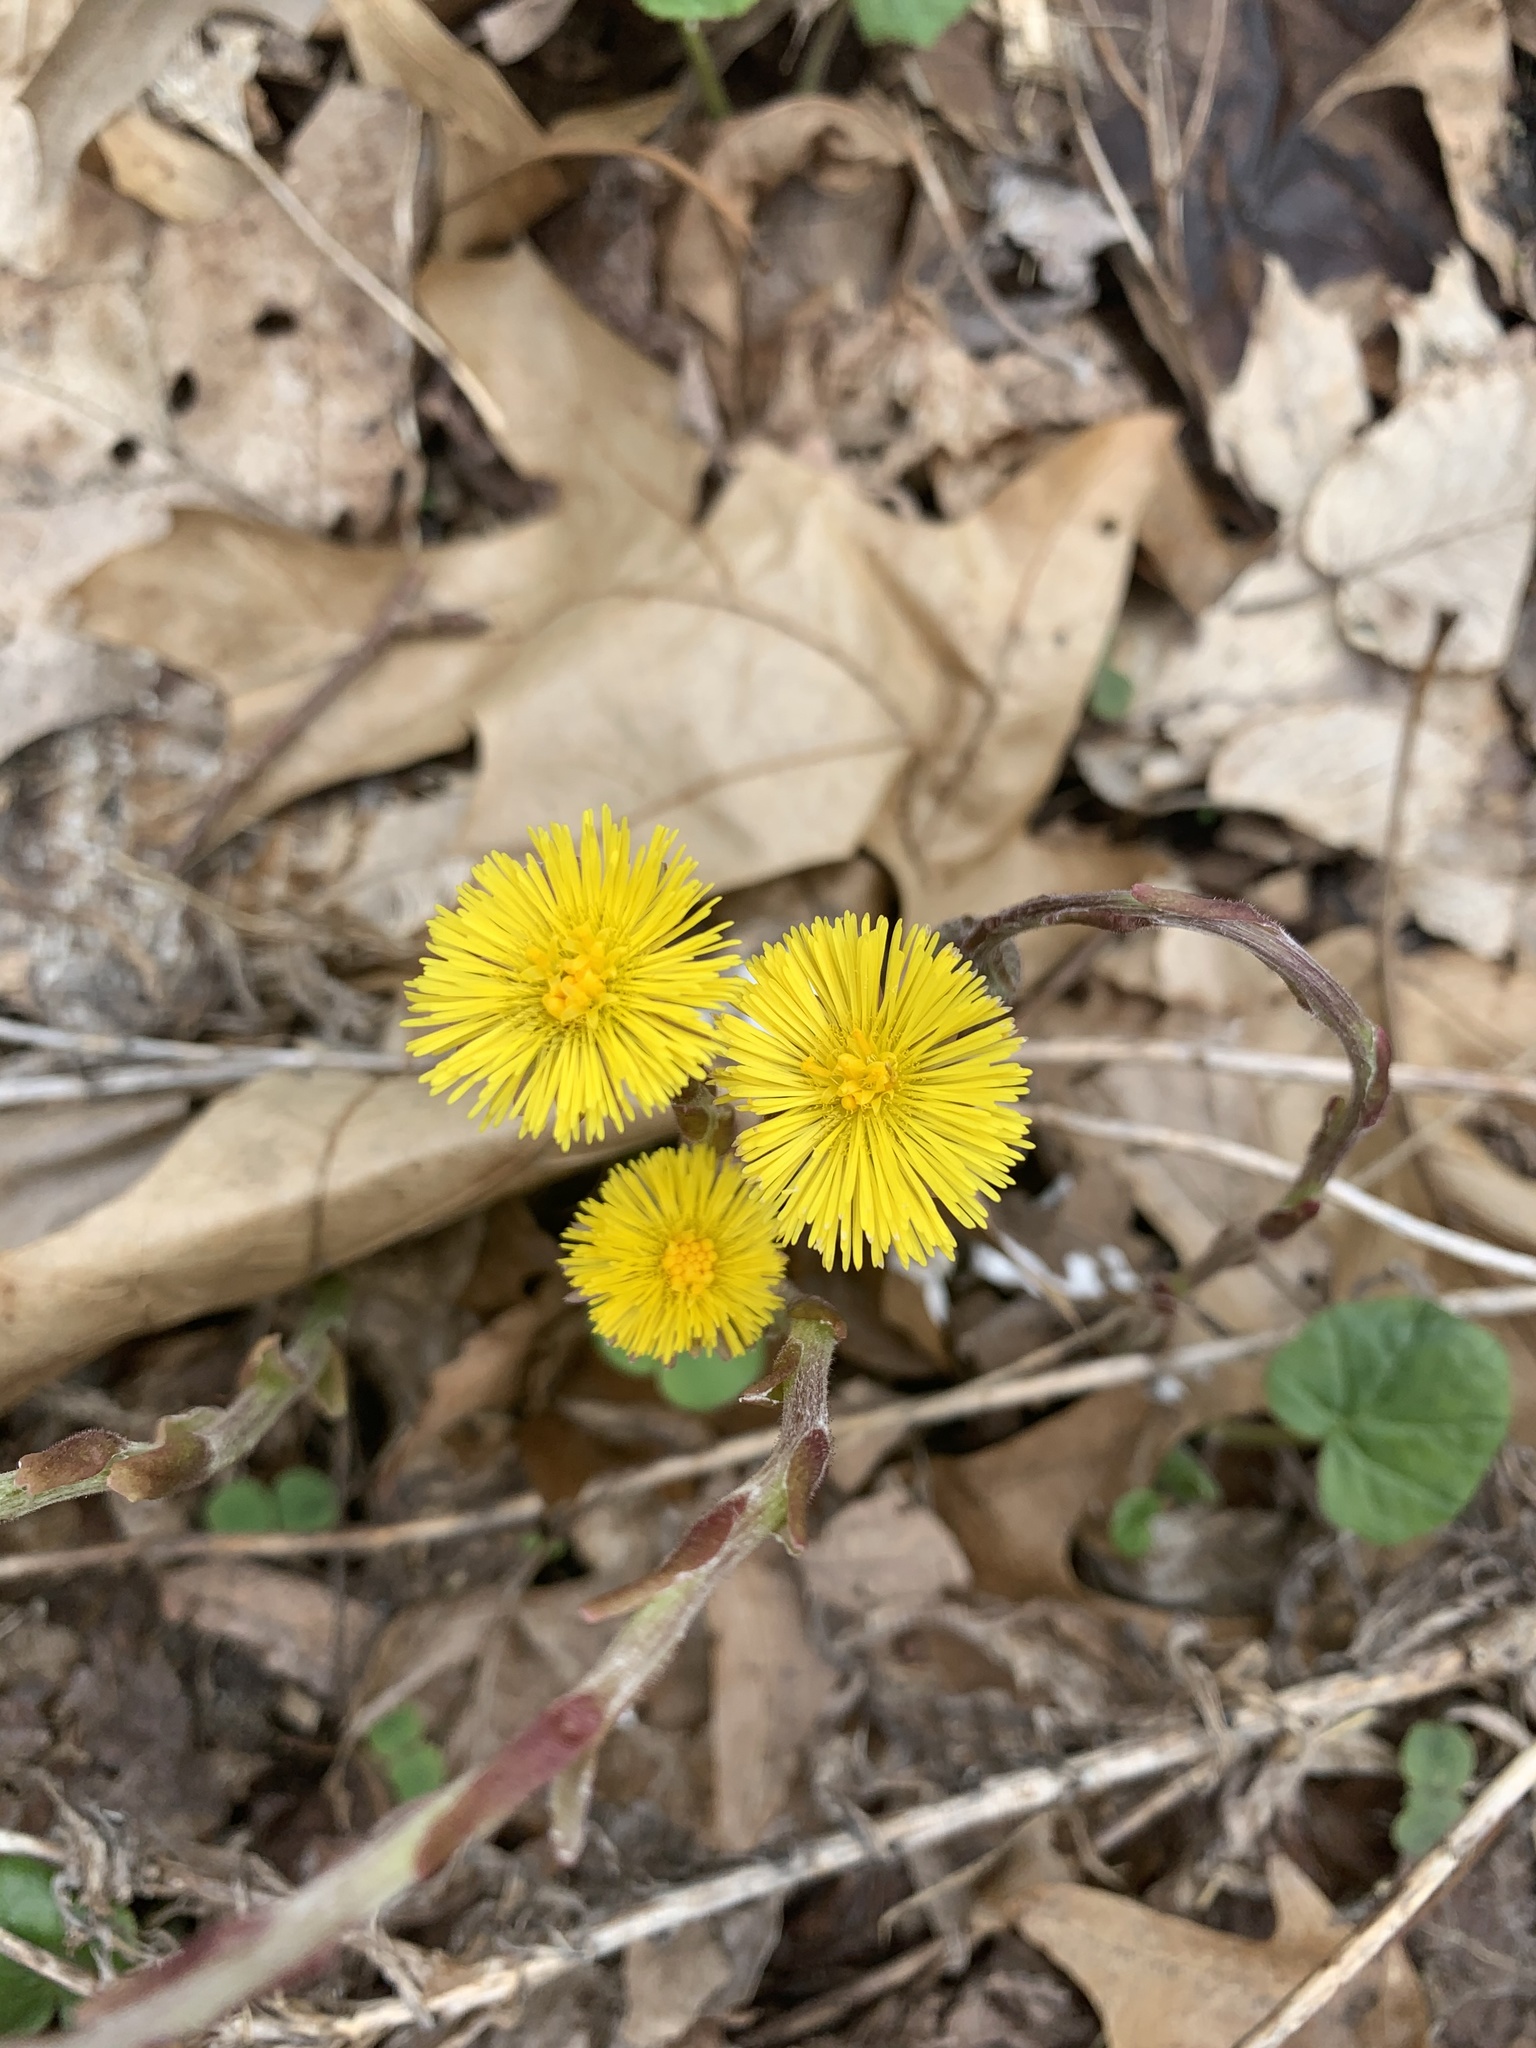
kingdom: Plantae
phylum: Tracheophyta
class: Magnoliopsida
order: Asterales
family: Asteraceae
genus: Tussilago
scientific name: Tussilago farfara
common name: Coltsfoot
